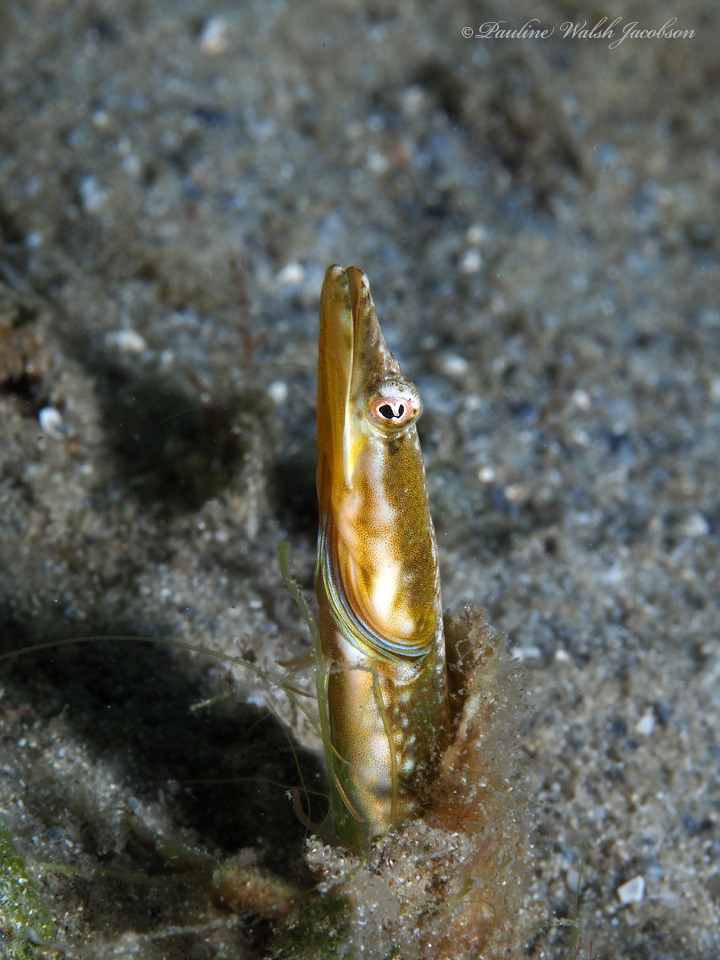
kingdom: Animalia
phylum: Chordata
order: Perciformes
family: Chaenopsidae
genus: Chaenopsis
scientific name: Chaenopsis ocellata
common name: Bluethroat pikeblenny
